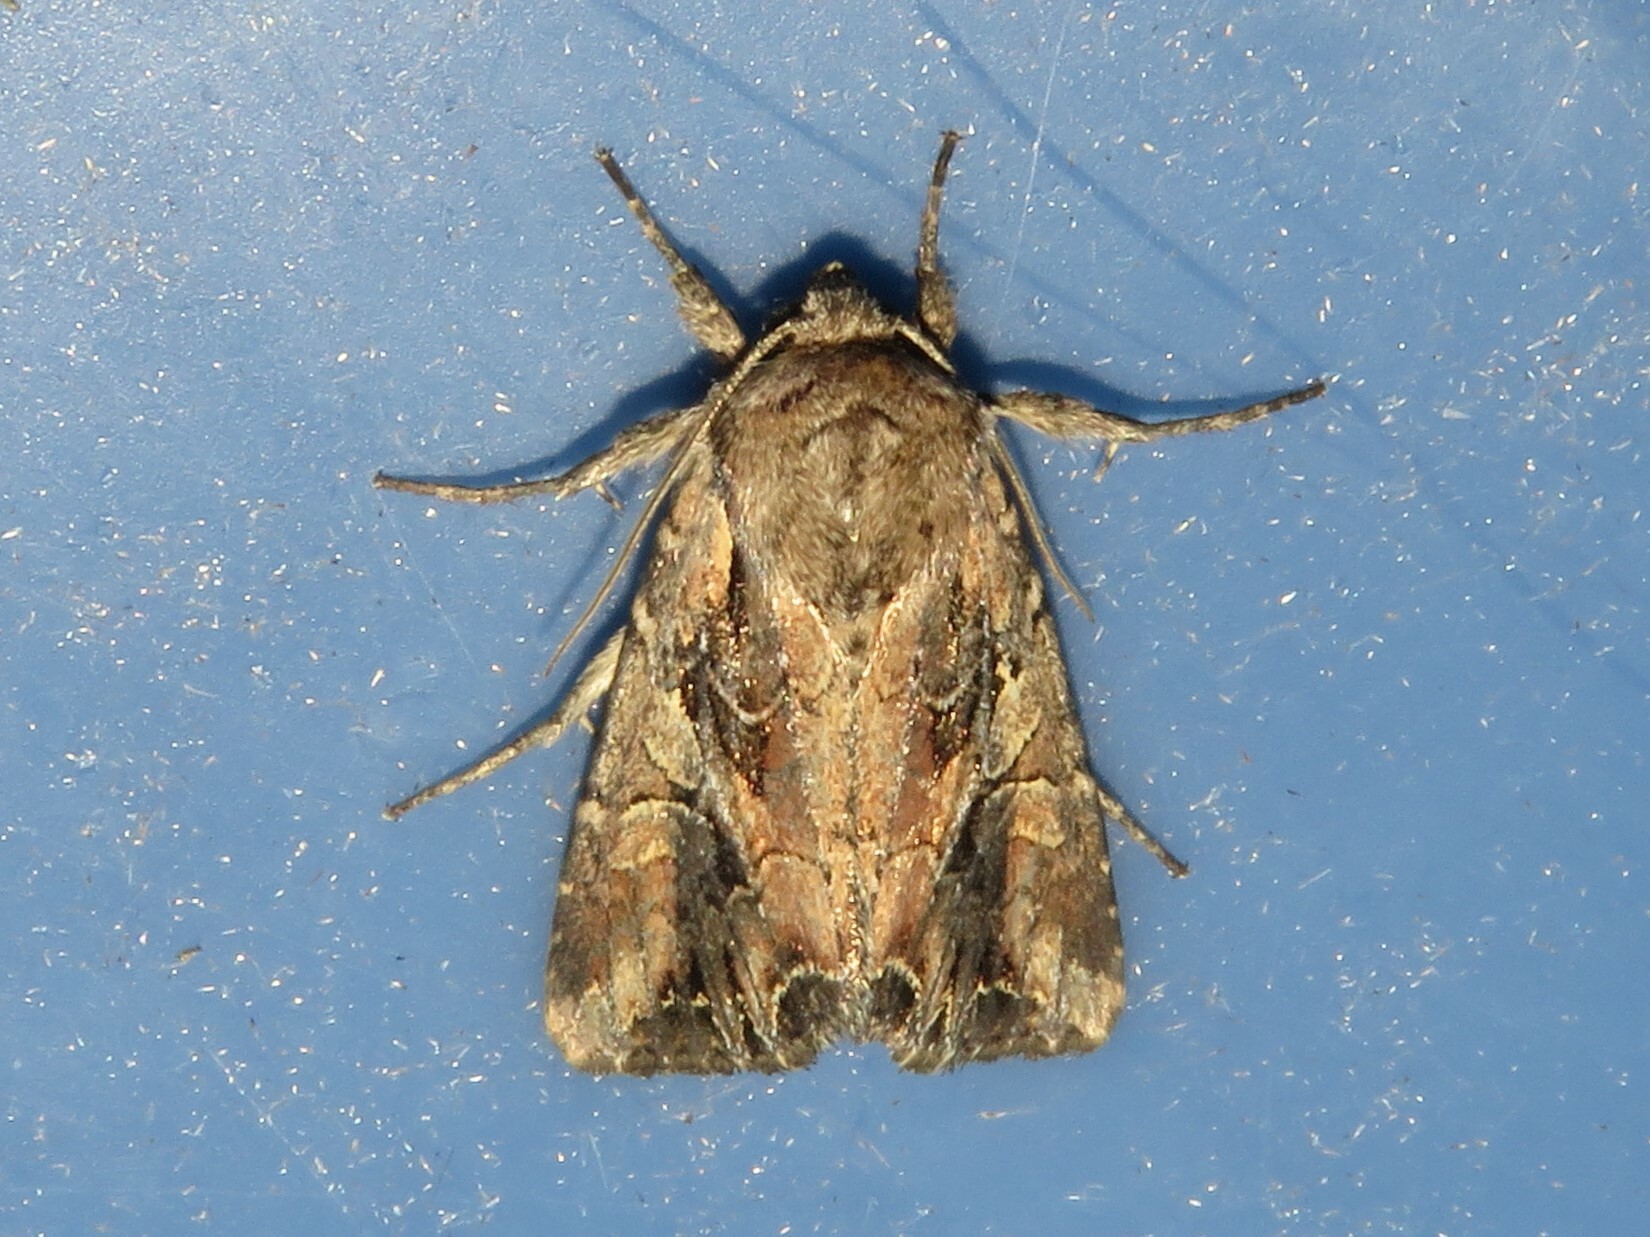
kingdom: Animalia
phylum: Arthropoda
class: Insecta
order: Lepidoptera
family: Noctuidae
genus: Lacanobia
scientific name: Lacanobia atlantica
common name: Atlantic arches moth
